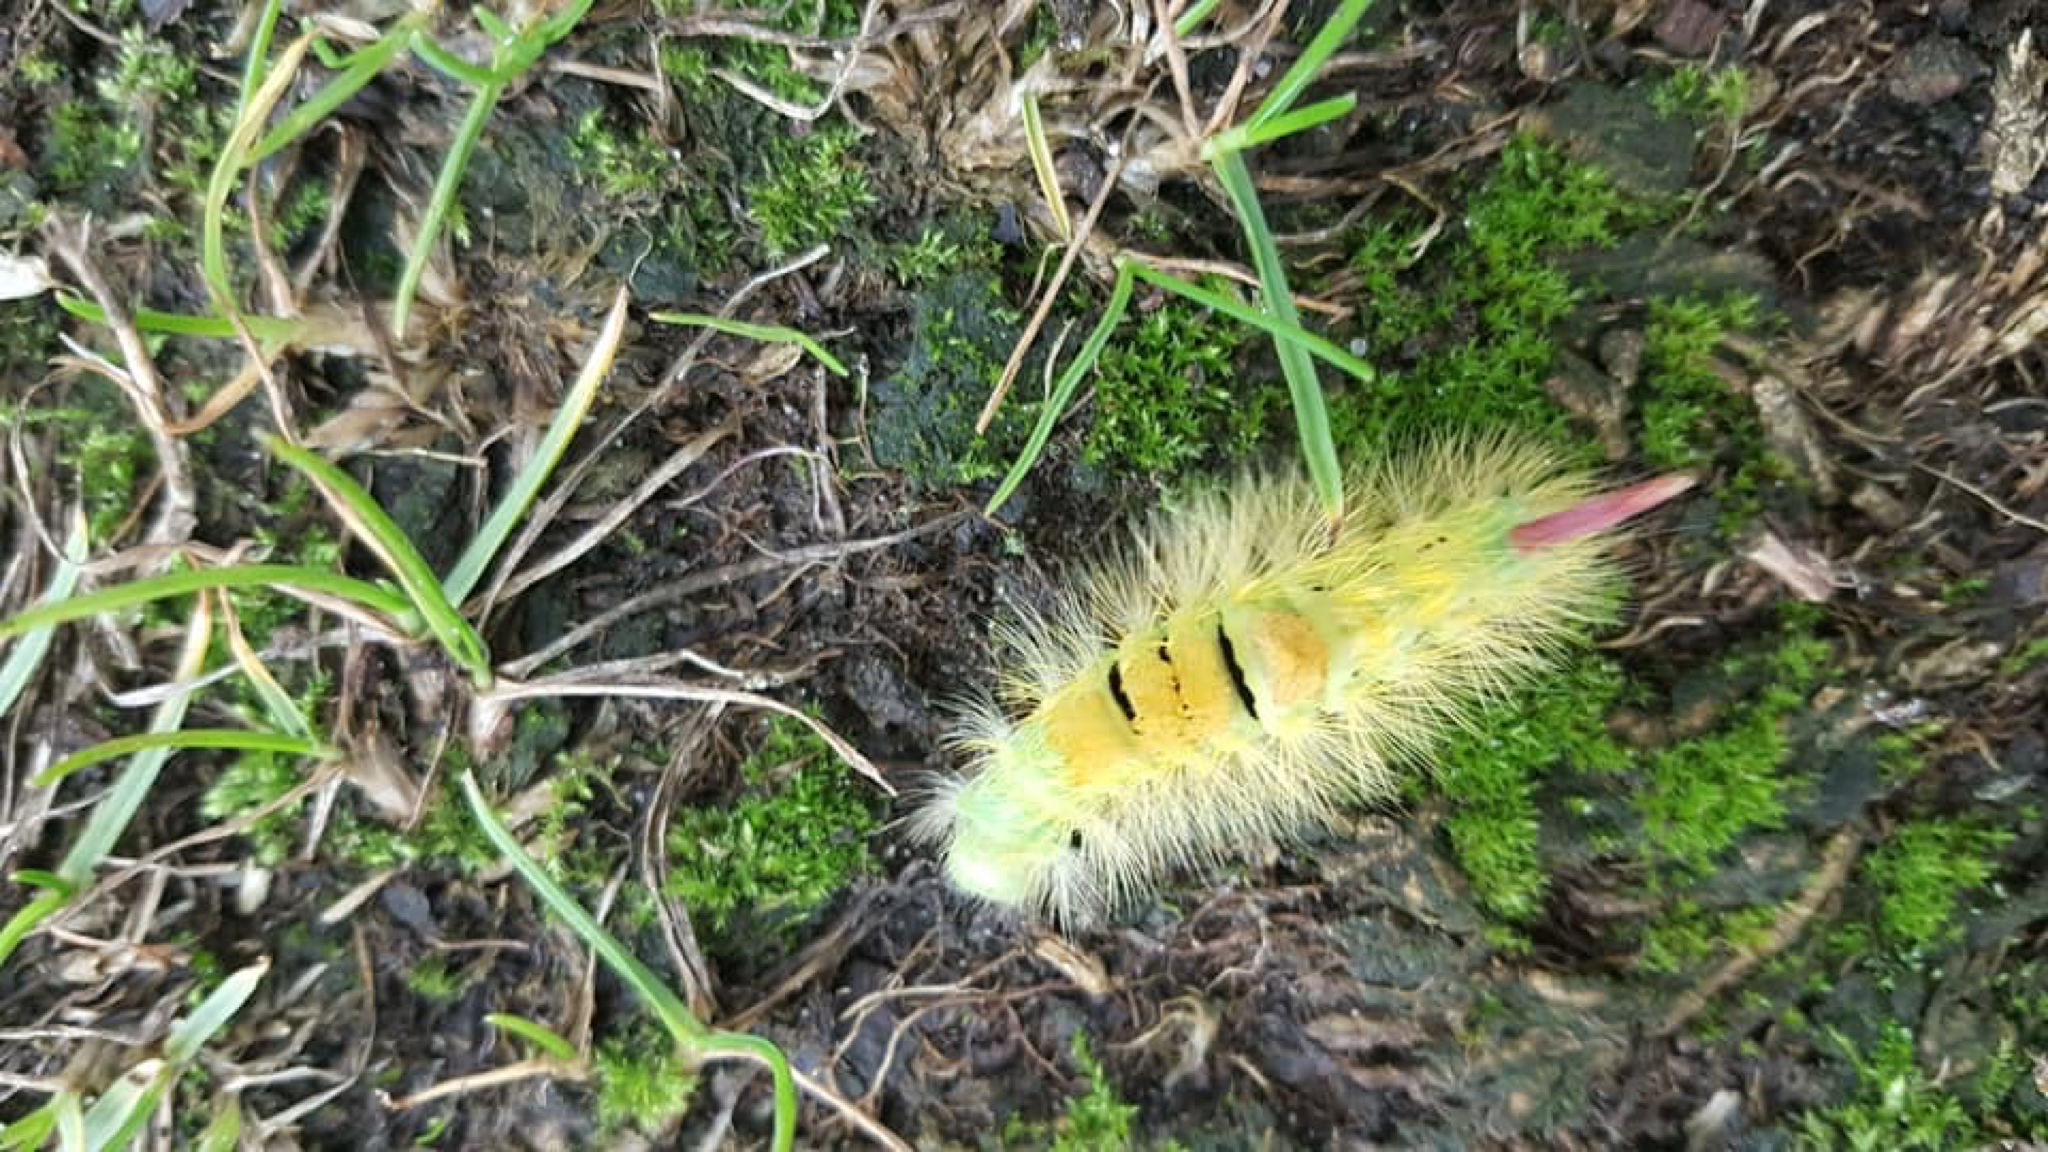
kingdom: Animalia
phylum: Arthropoda
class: Insecta
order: Lepidoptera
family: Erebidae
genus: Calliteara
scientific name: Calliteara pudibunda
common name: Pale tussock
